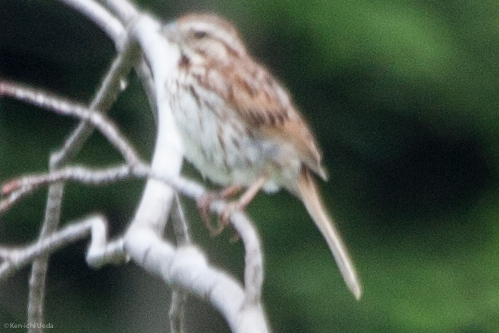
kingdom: Animalia
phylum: Chordata
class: Aves
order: Passeriformes
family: Passerellidae
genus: Melospiza
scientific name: Melospiza melodia
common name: Song sparrow
